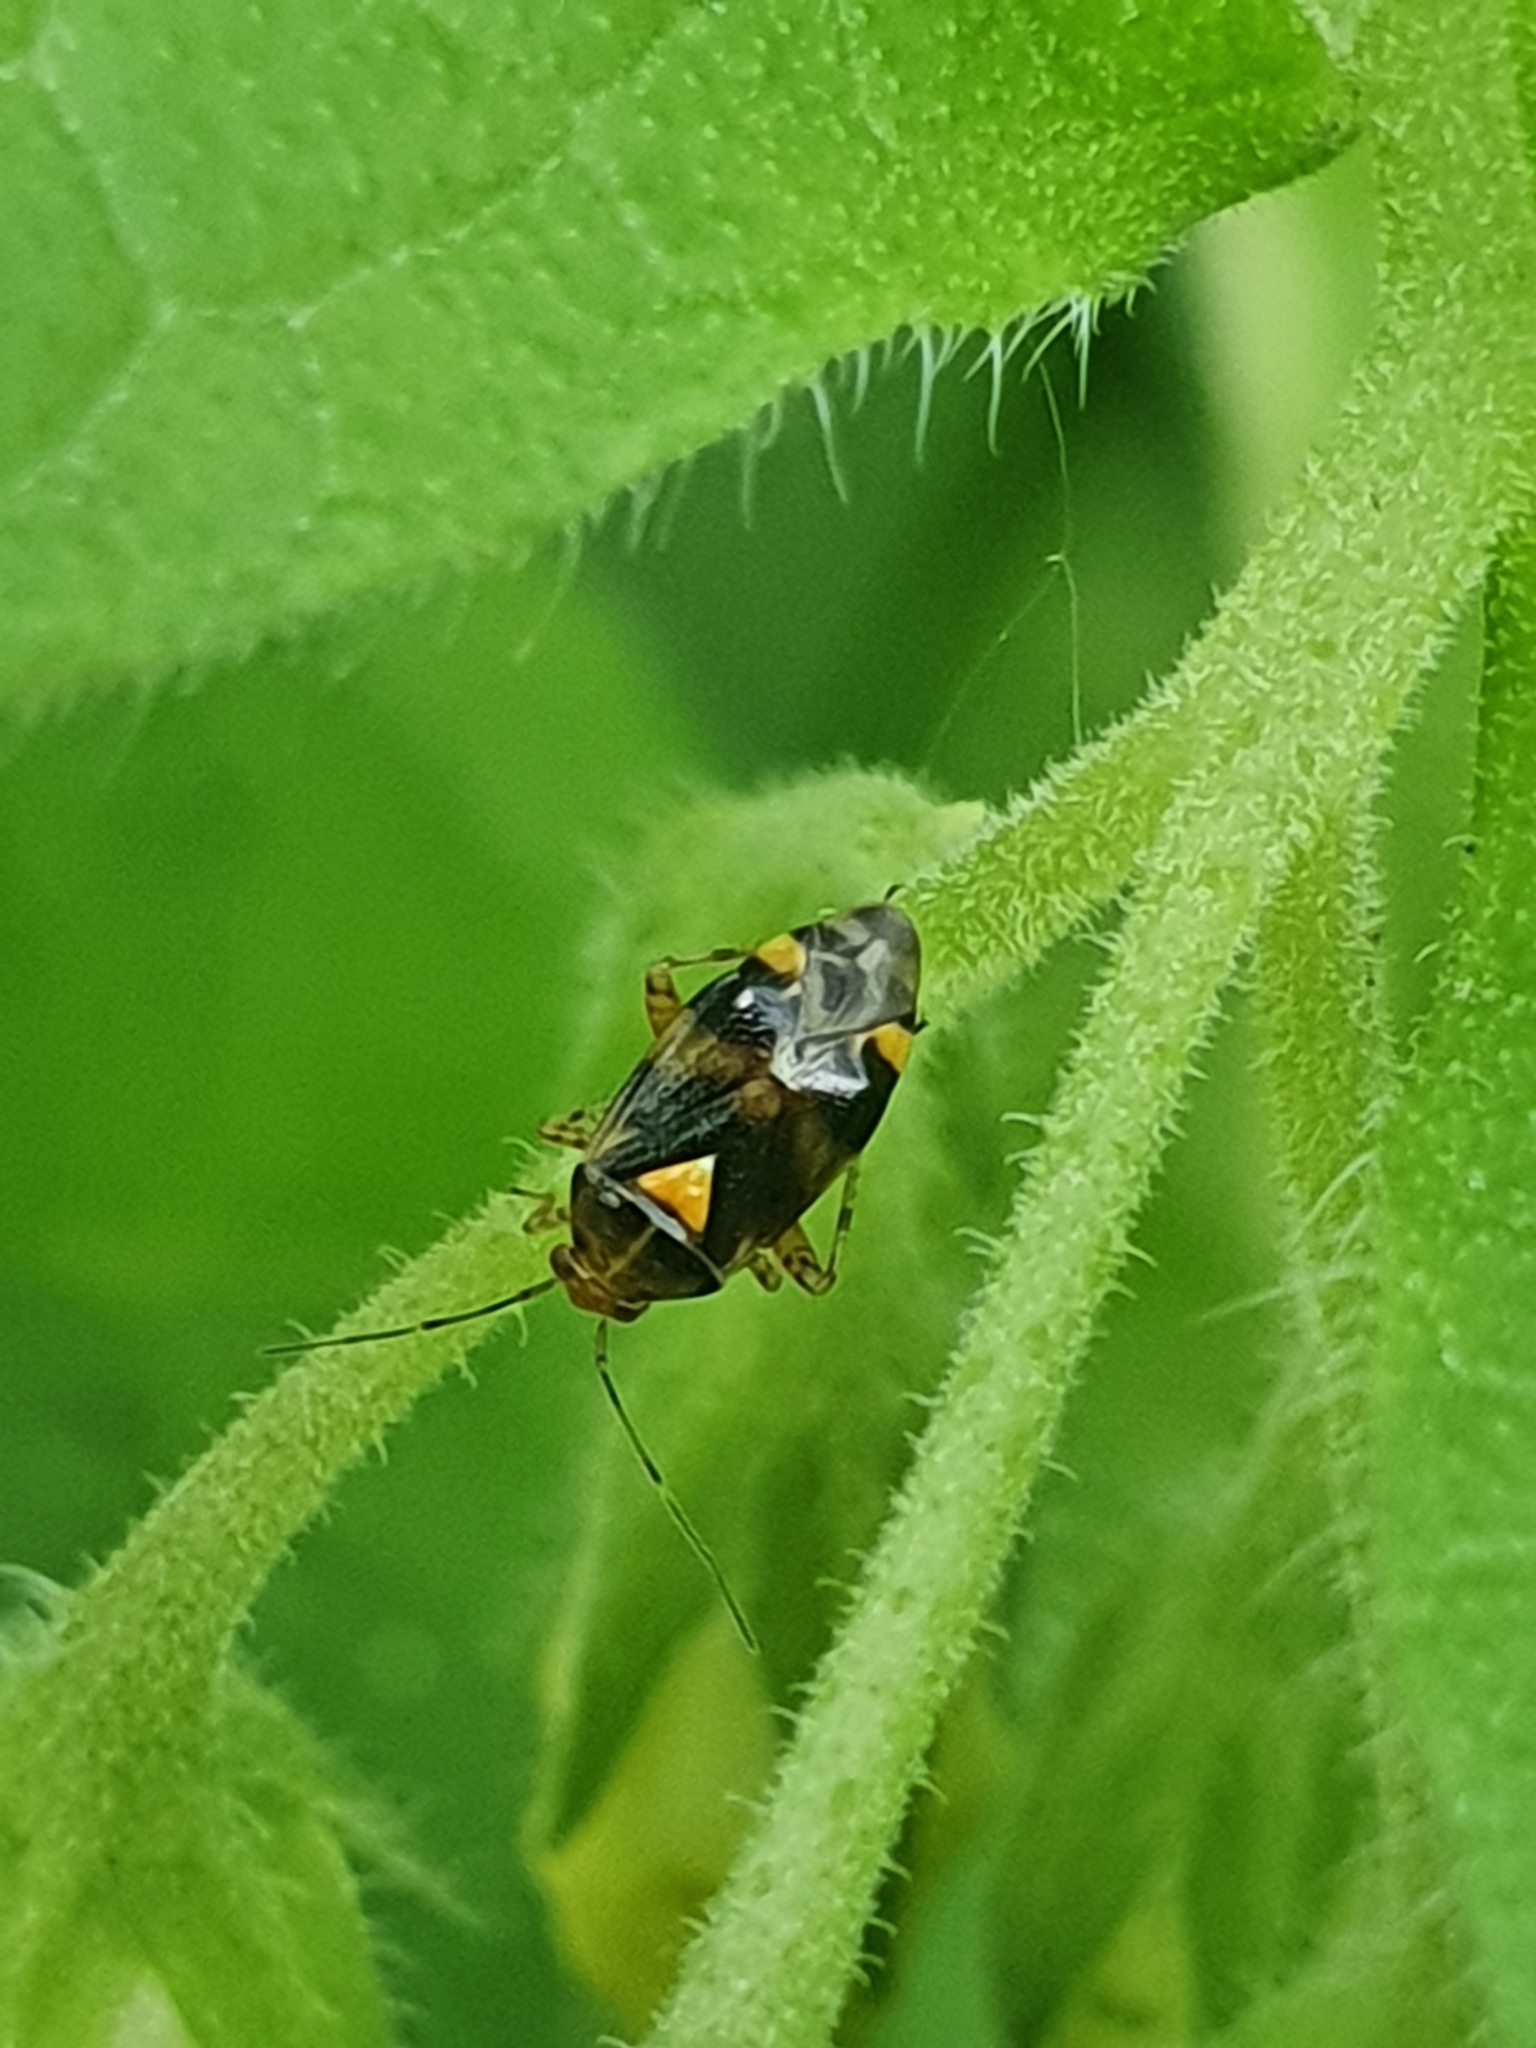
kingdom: Animalia
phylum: Arthropoda
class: Insecta
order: Hemiptera
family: Miridae
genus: Liocoris
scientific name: Liocoris tripustulatus
